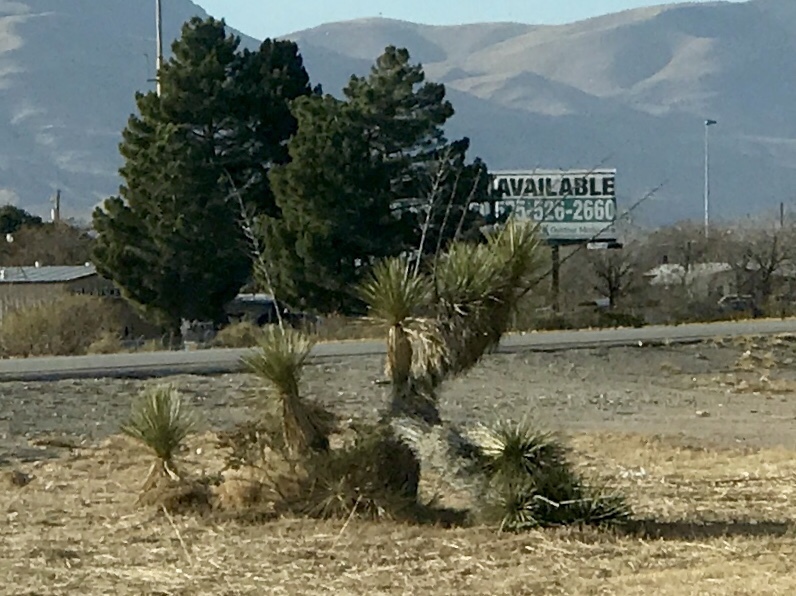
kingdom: Plantae
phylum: Tracheophyta
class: Liliopsida
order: Asparagales
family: Asparagaceae
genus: Yucca
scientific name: Yucca elata
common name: Palmella
